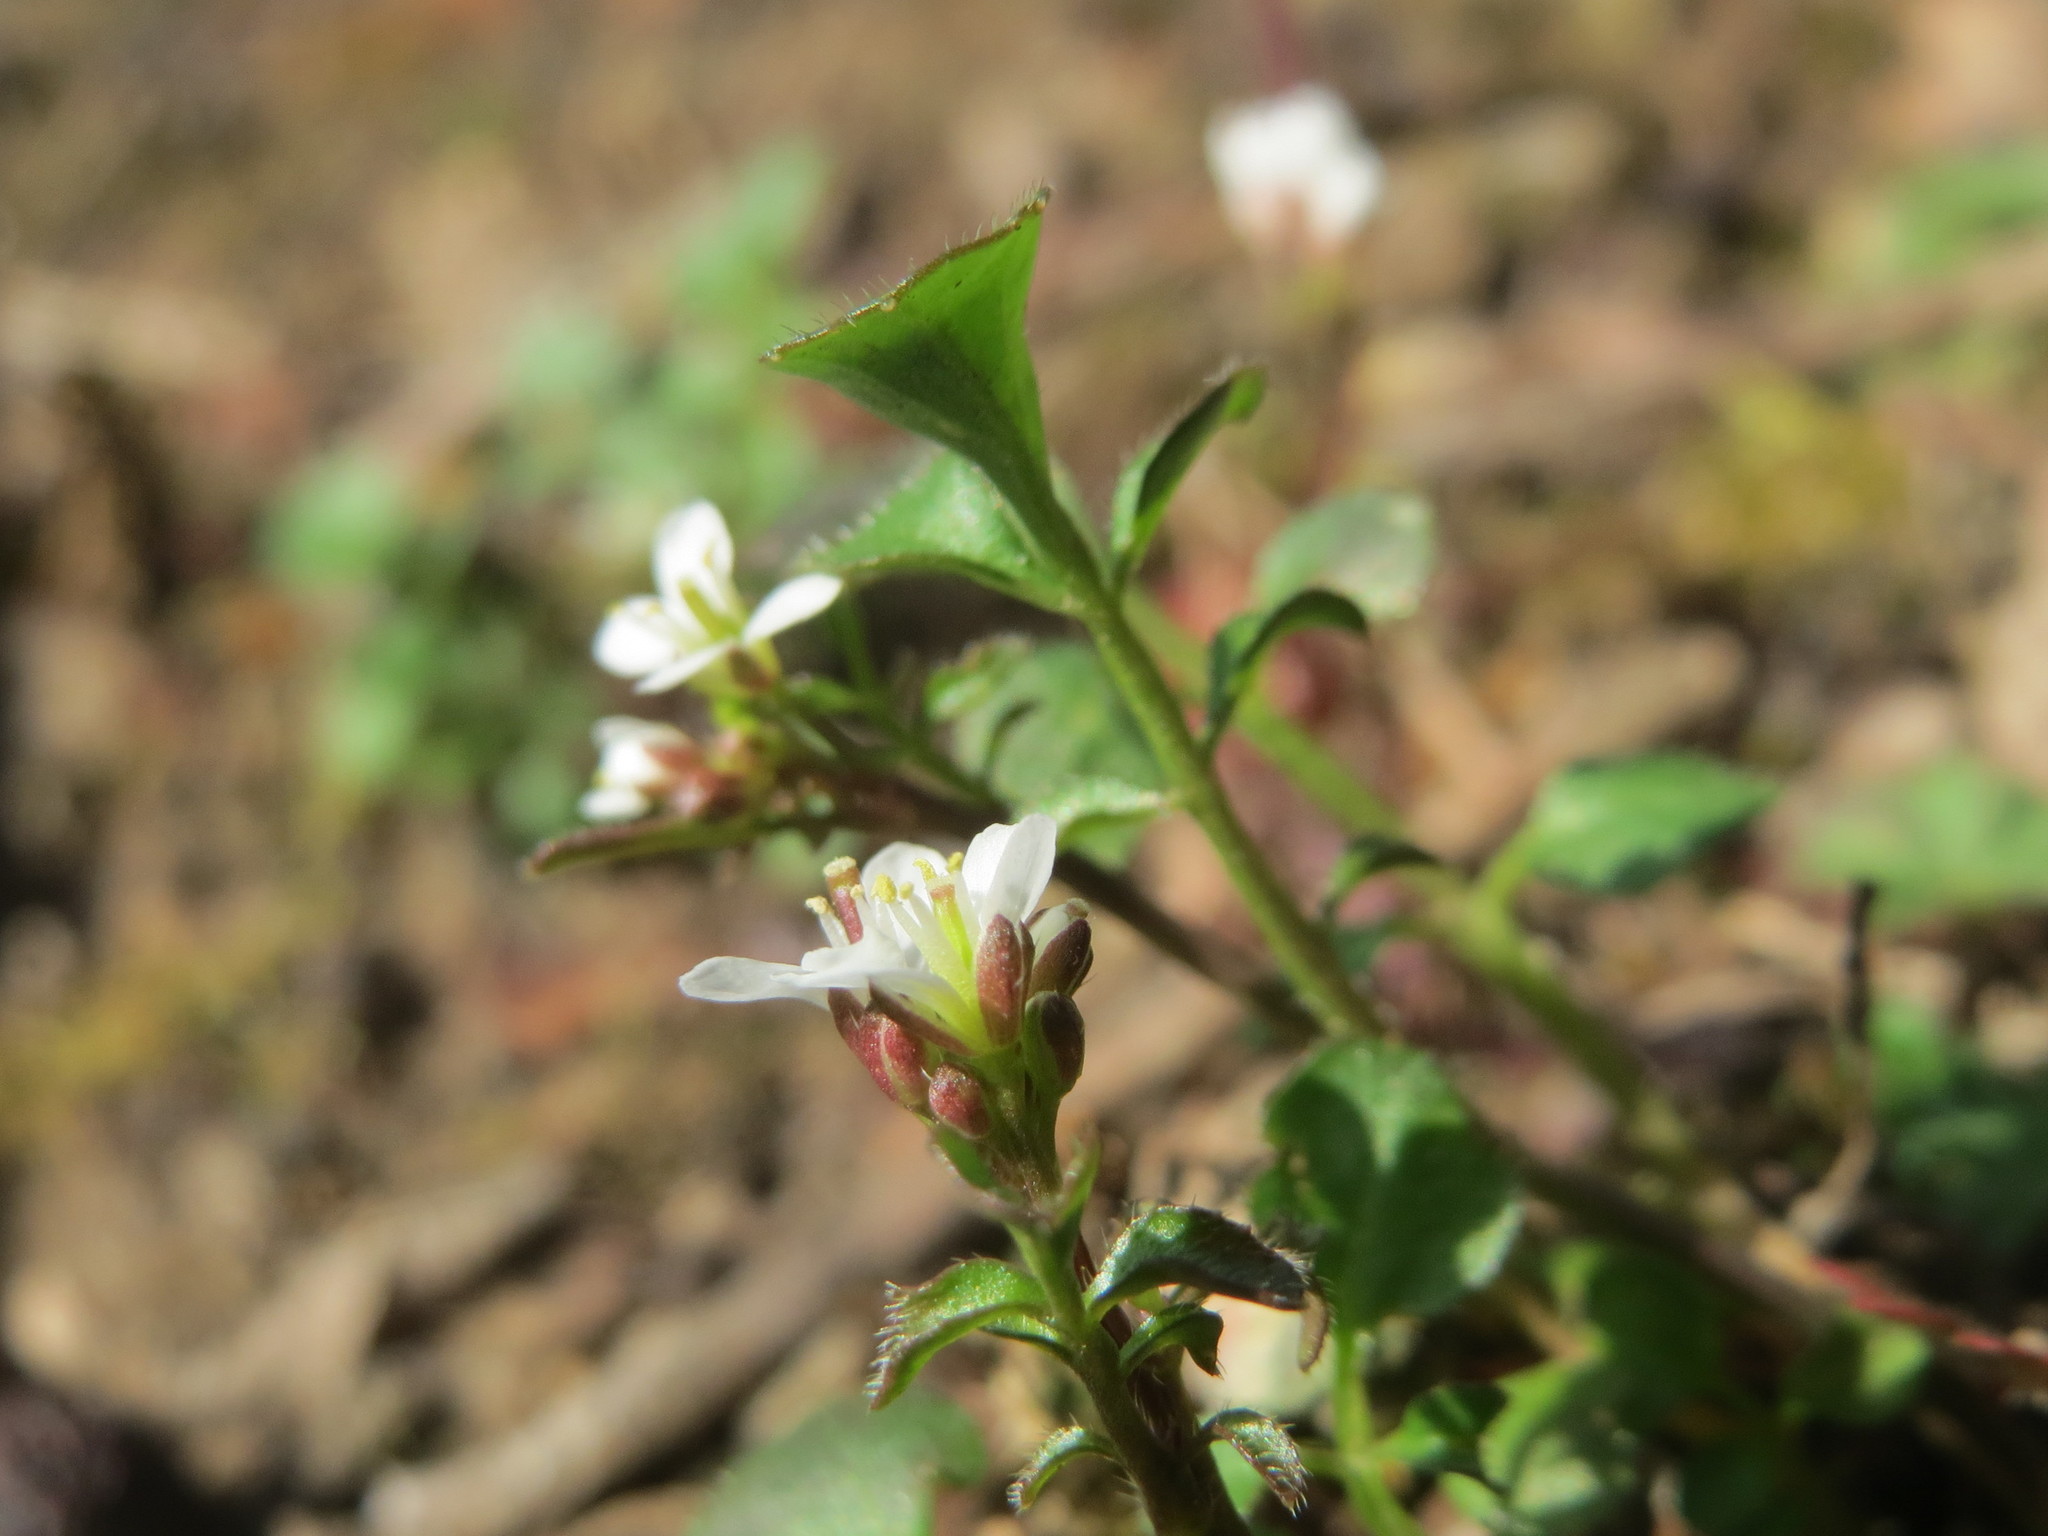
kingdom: Plantae
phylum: Tracheophyta
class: Magnoliopsida
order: Brassicales
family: Brassicaceae
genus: Cardamine
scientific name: Cardamine hirsuta
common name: Hairy bittercress
